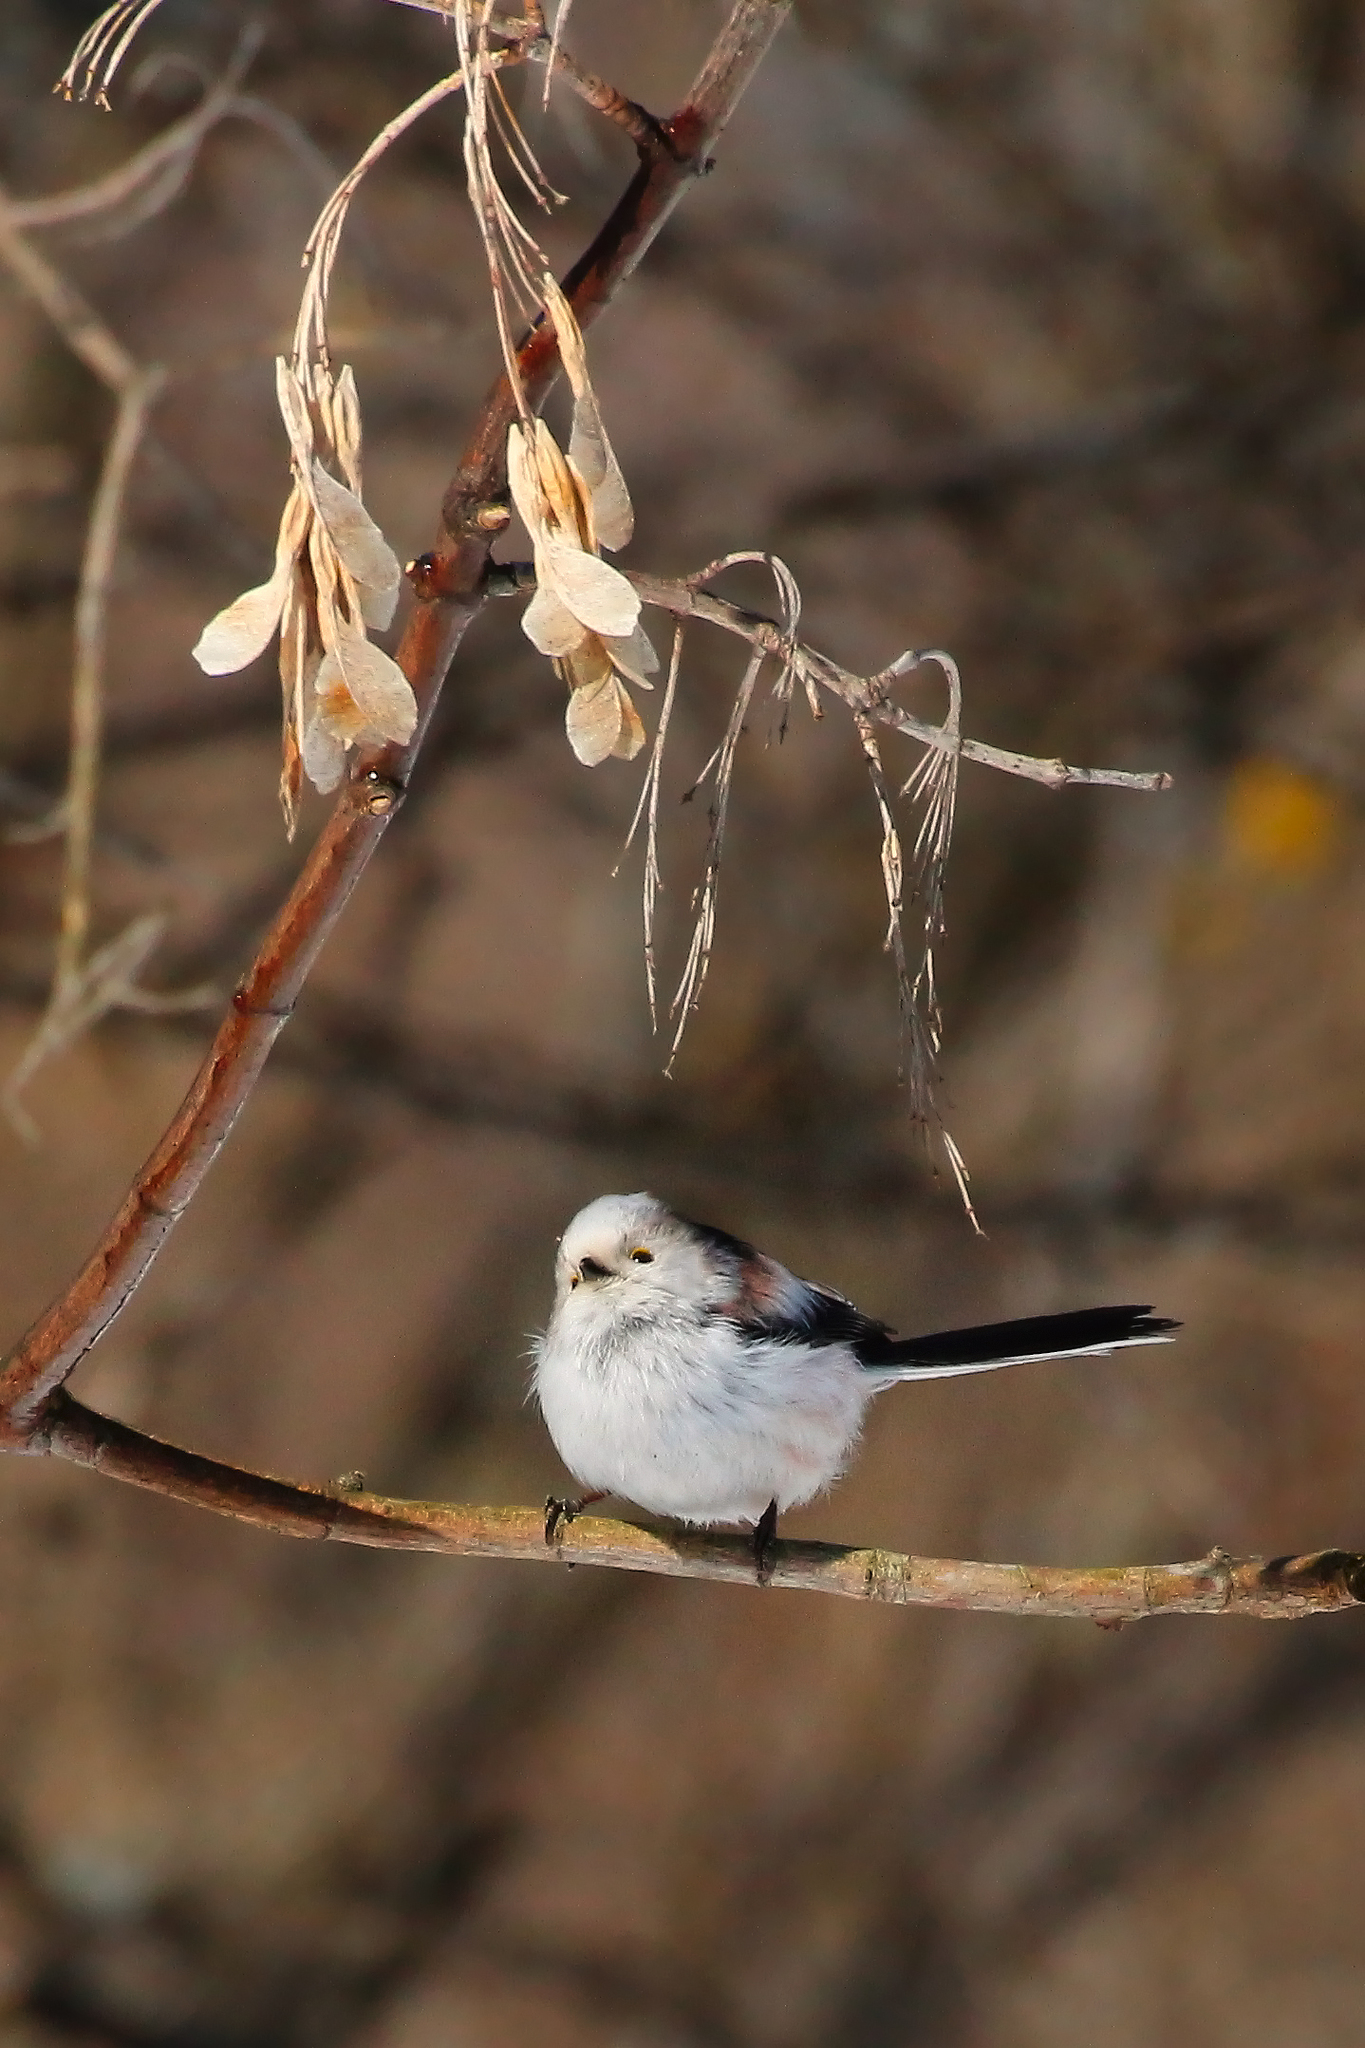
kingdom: Animalia
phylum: Chordata
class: Aves
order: Passeriformes
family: Aegithalidae
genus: Aegithalos
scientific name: Aegithalos caudatus
